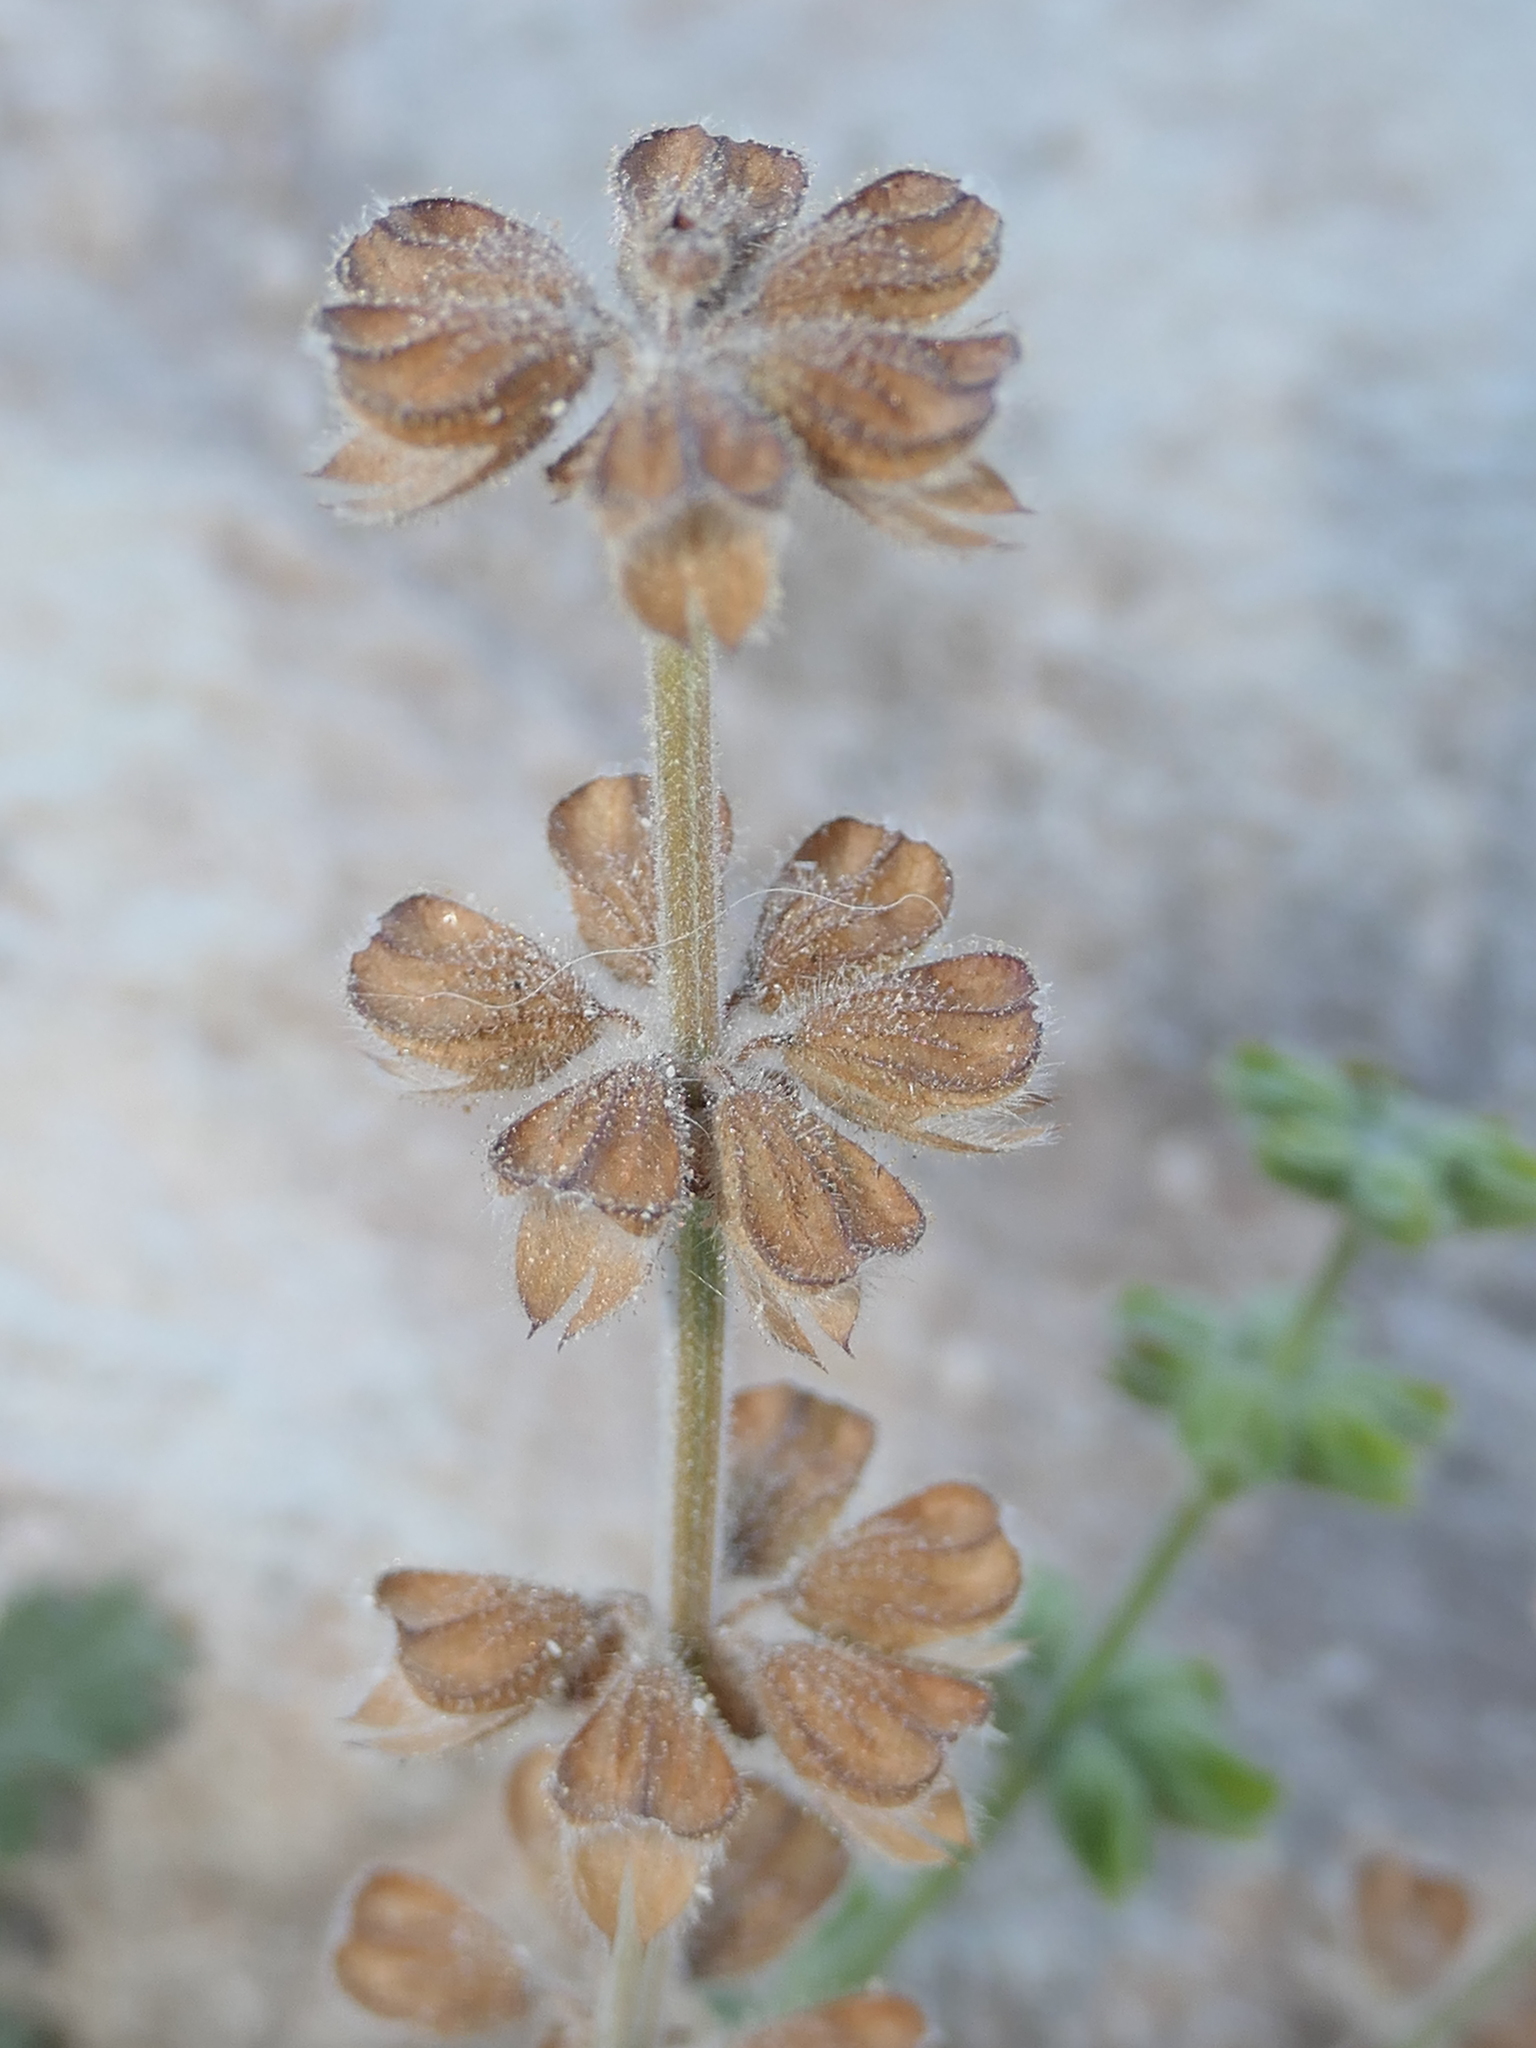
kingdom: Plantae
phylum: Tracheophyta
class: Magnoliopsida
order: Lamiales
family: Lamiaceae
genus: Salvia
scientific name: Salvia verbenaca
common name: Wild clary
